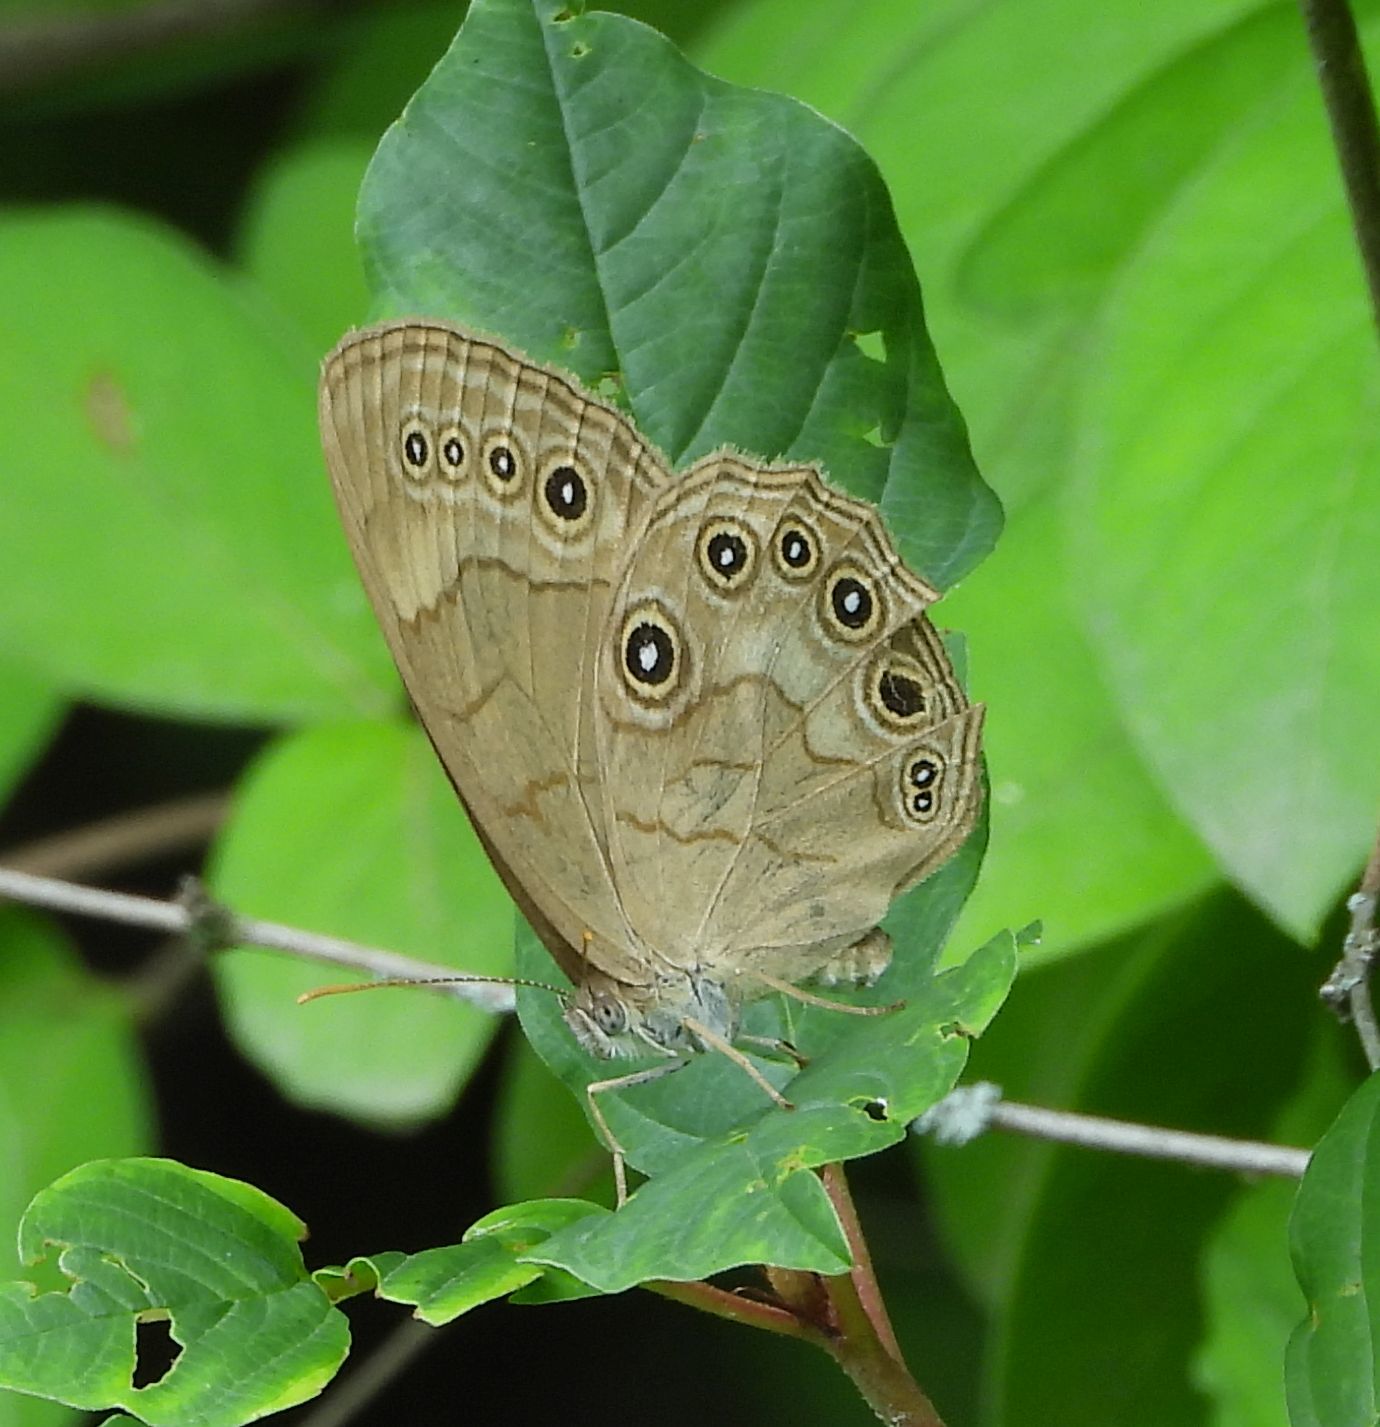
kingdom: Animalia
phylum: Arthropoda
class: Insecta
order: Lepidoptera
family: Nymphalidae
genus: Lethe
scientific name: Lethe eurydice
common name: Eyed brown
